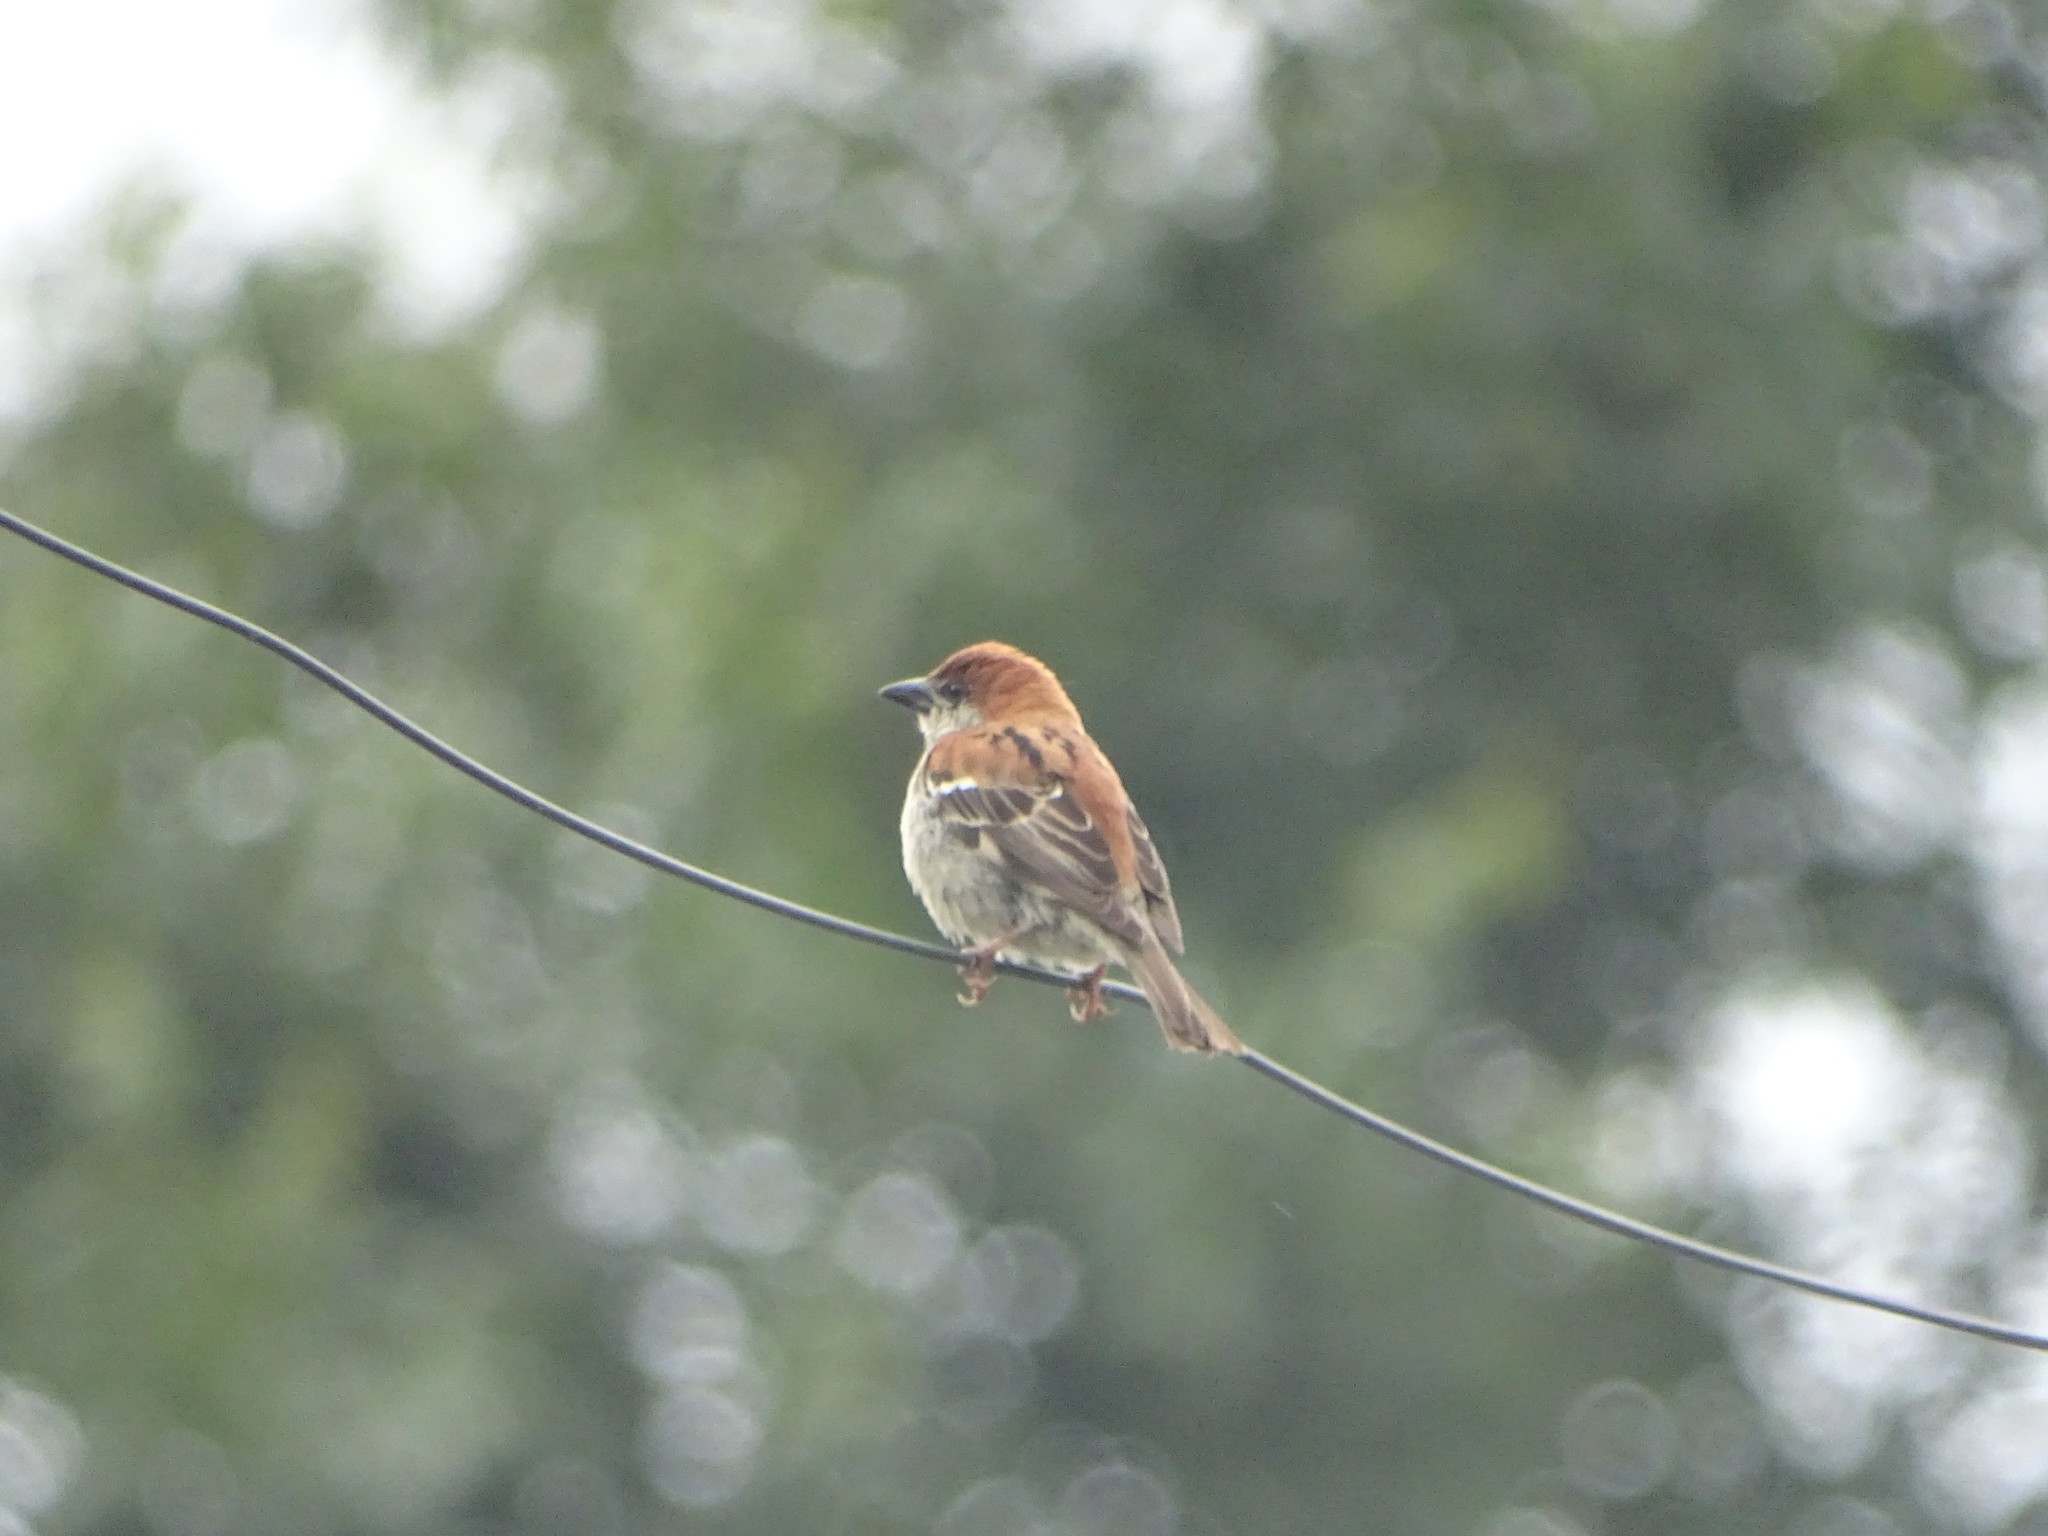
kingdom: Animalia
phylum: Chordata
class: Aves
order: Passeriformes
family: Passeridae
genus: Passer
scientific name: Passer cinnamomeus
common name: Russet sparrow
